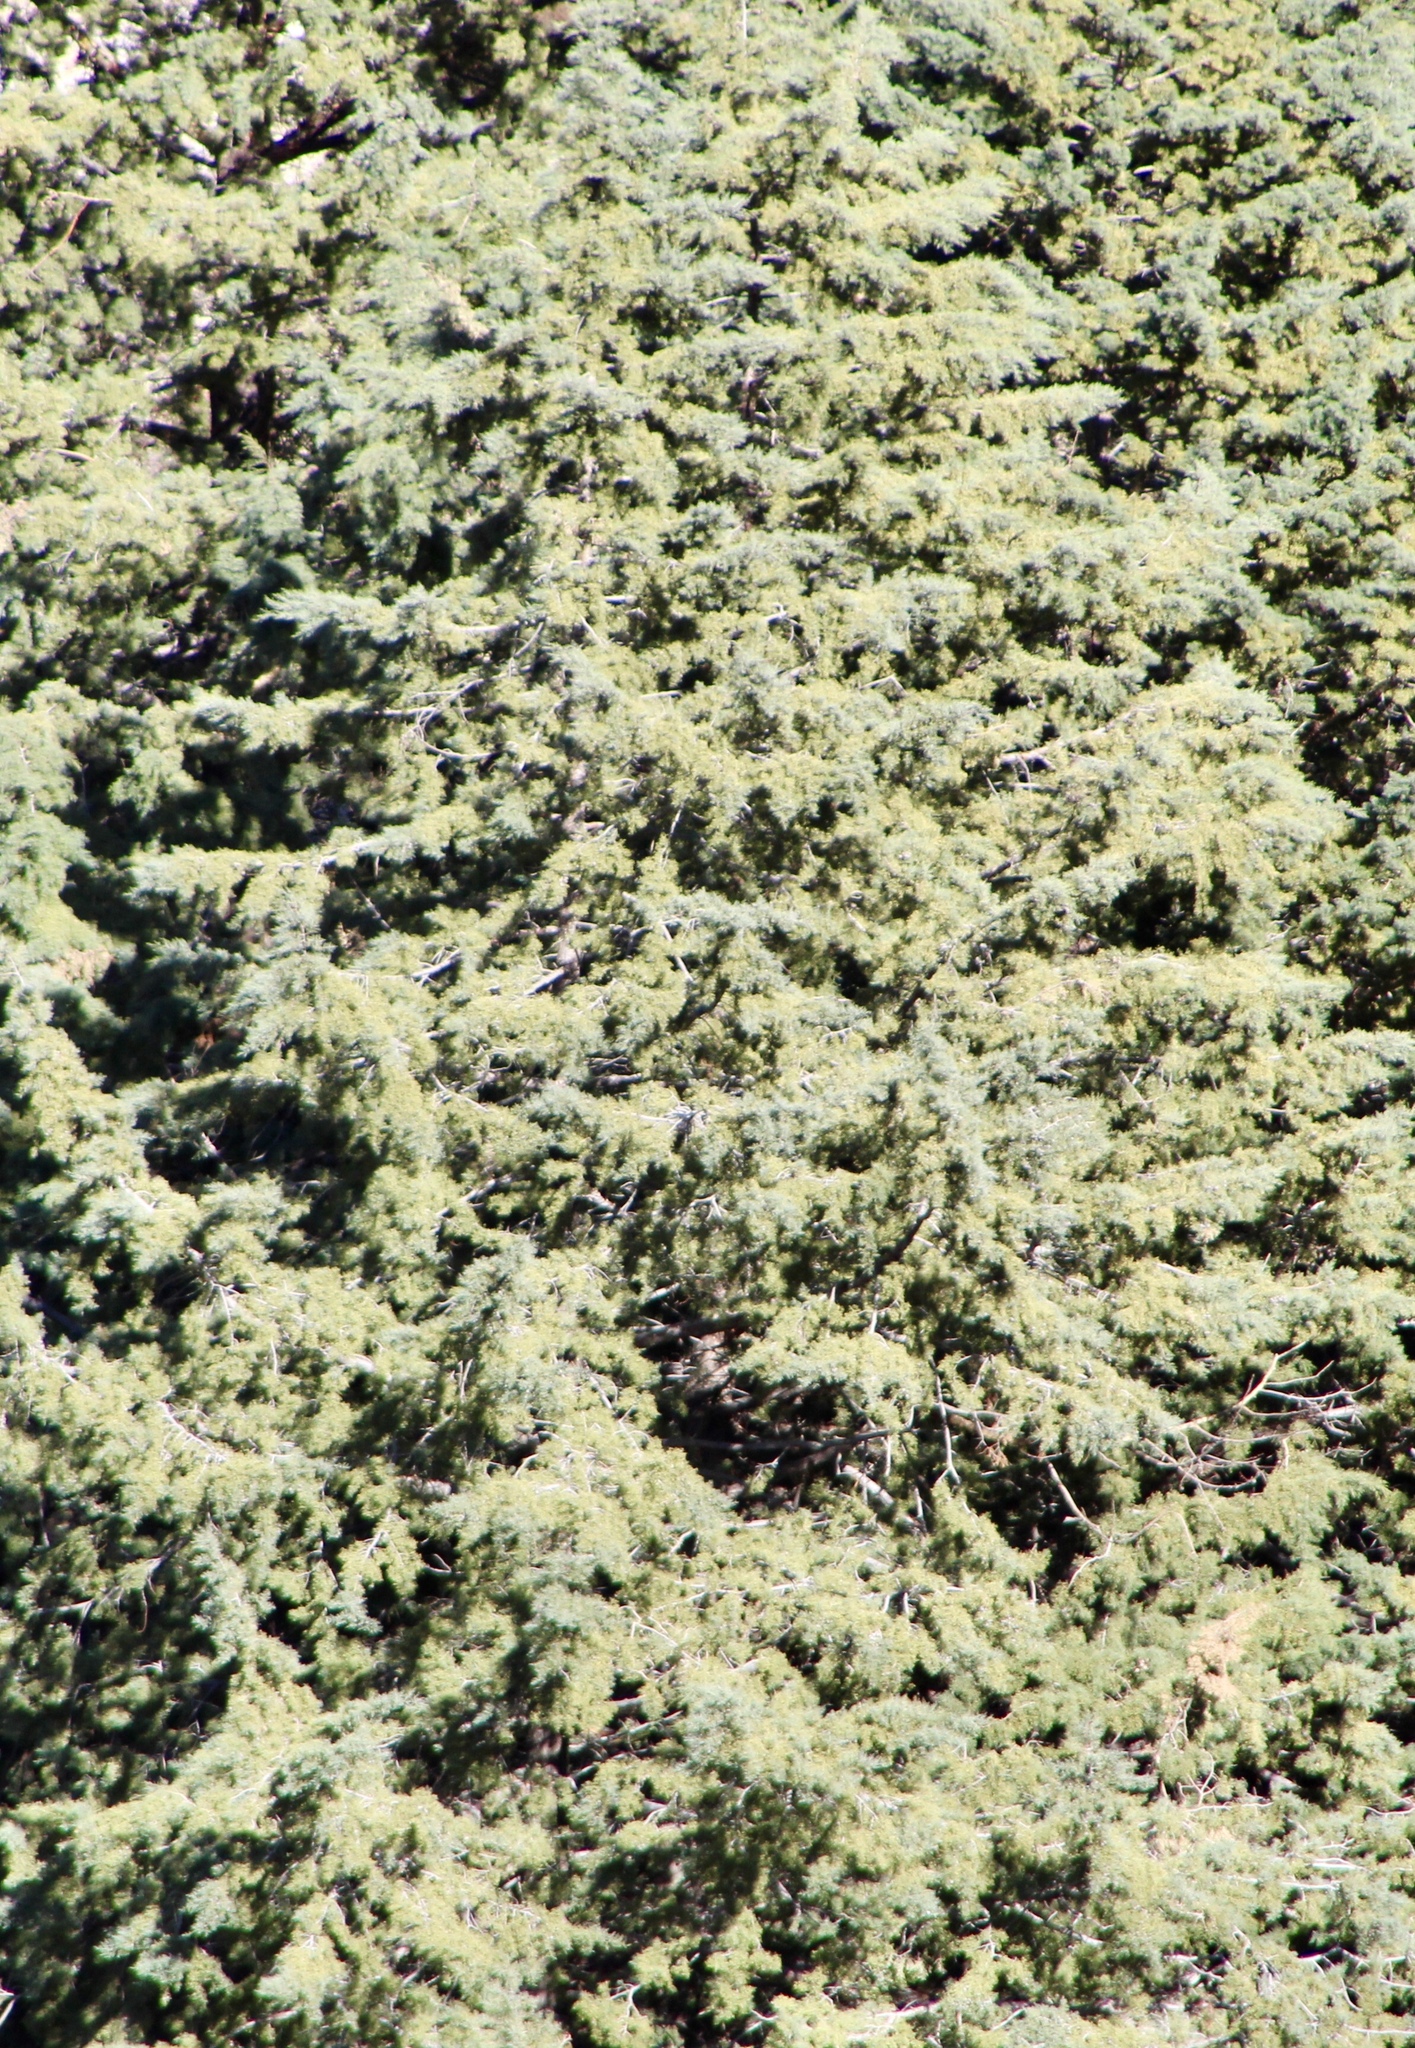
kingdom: Plantae
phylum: Tracheophyta
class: Pinopsida
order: Pinales
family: Cupressaceae
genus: Cupressus
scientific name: Cupressus arizonica
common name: Arizona cypress
